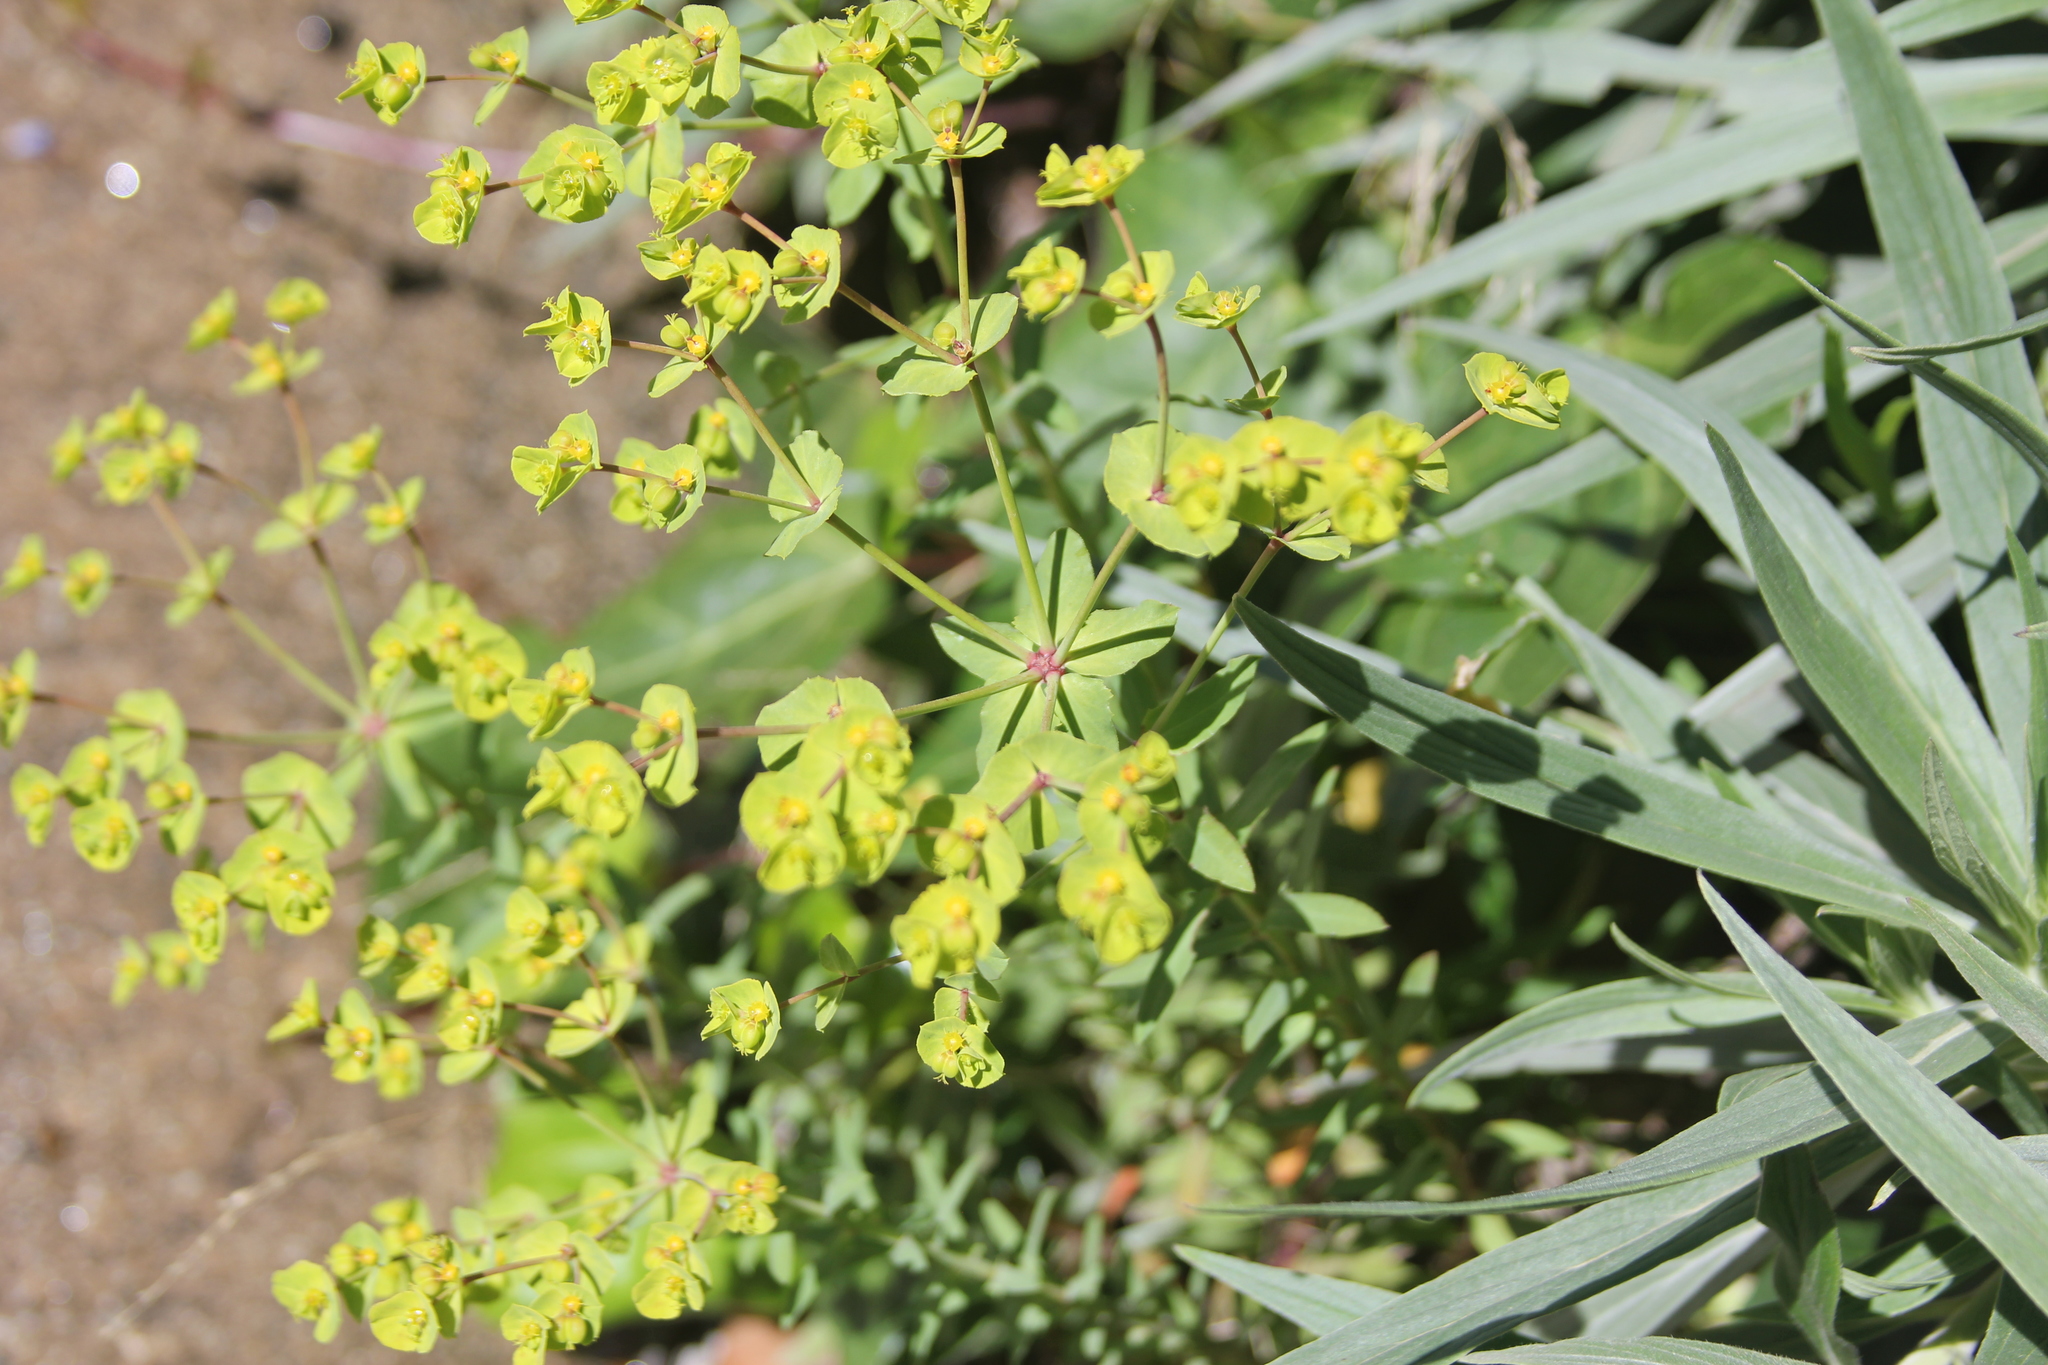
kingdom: Plantae
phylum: Tracheophyta
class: Magnoliopsida
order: Malpighiales
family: Euphorbiaceae
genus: Euphorbia
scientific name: Euphorbia terracina
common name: Geraldton carnation weed
